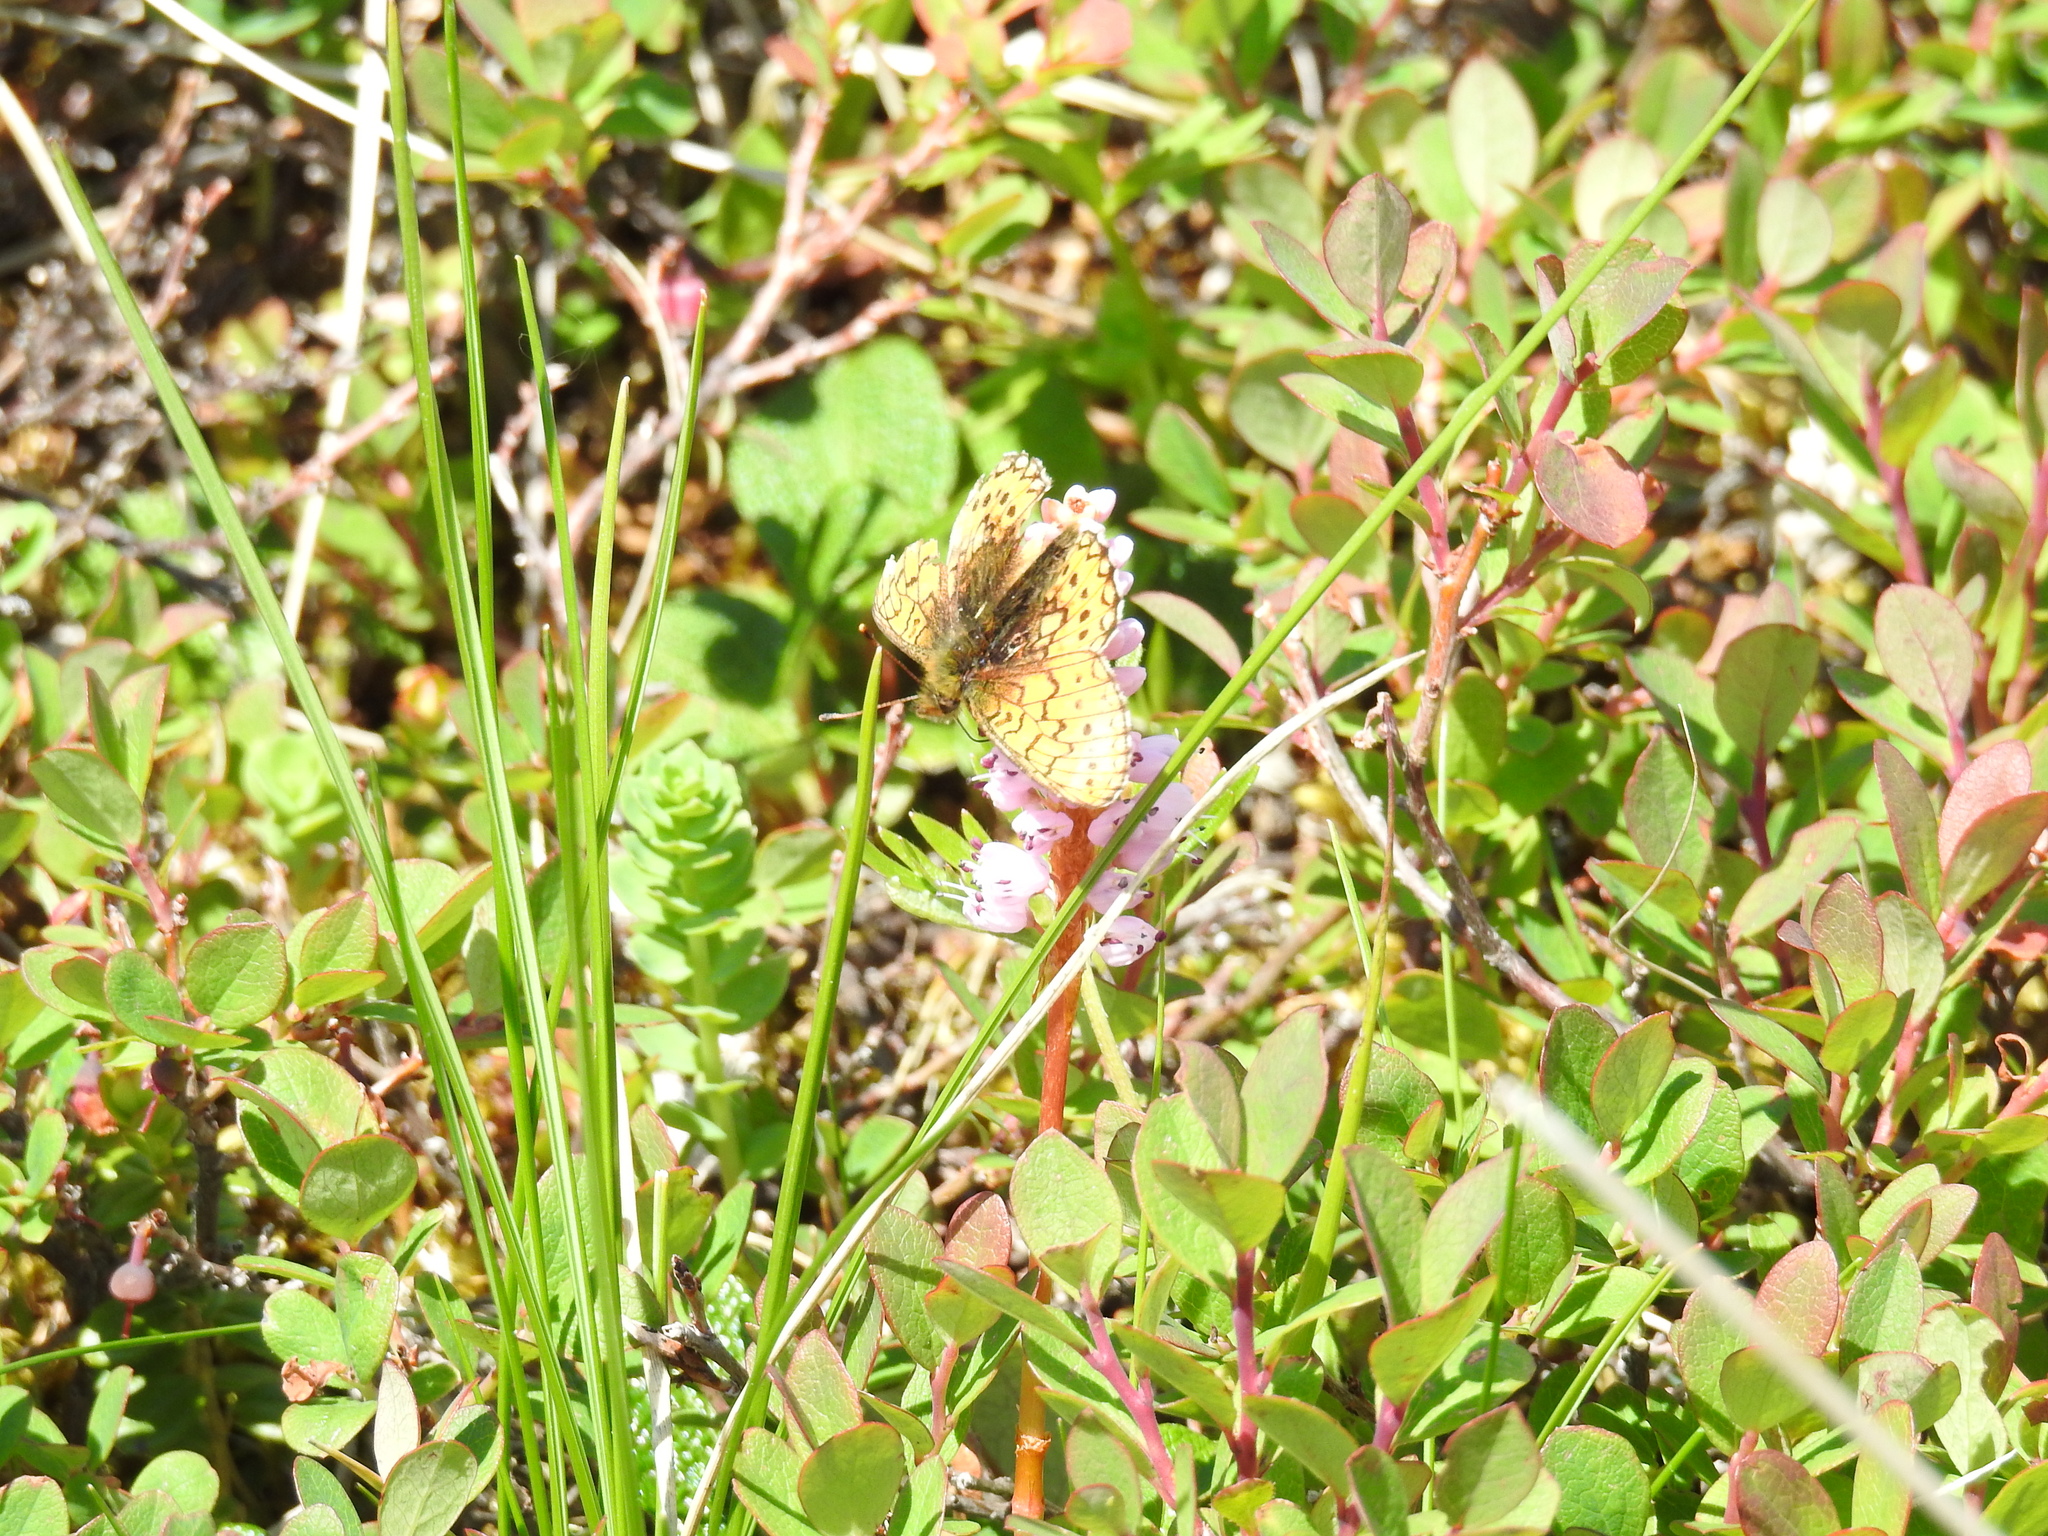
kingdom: Animalia
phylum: Arthropoda
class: Insecta
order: Lepidoptera
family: Nymphalidae
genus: Boloria
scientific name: Boloria eunomia
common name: Bog fritillary
